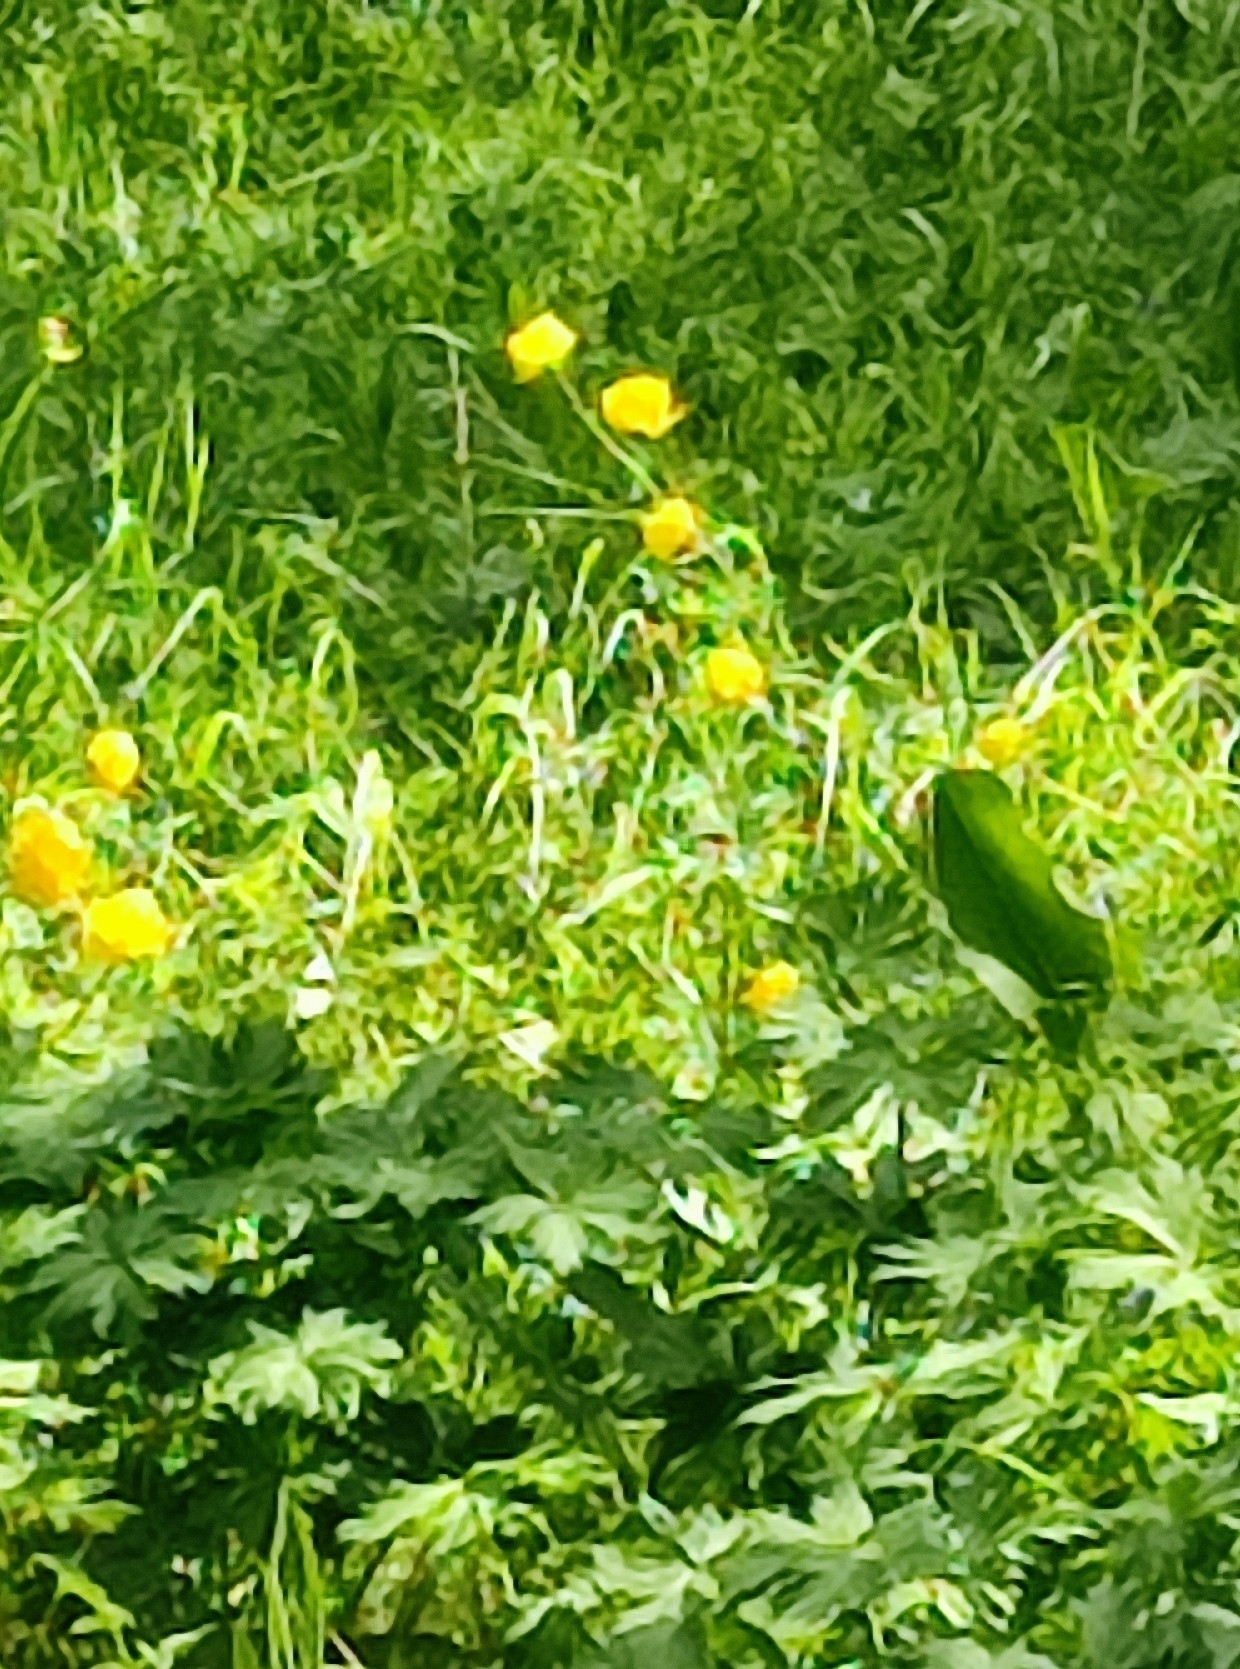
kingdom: Plantae
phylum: Tracheophyta
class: Magnoliopsida
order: Ranunculales
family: Ranunculaceae
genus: Trollius
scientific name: Trollius europaeus
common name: European globeflower
